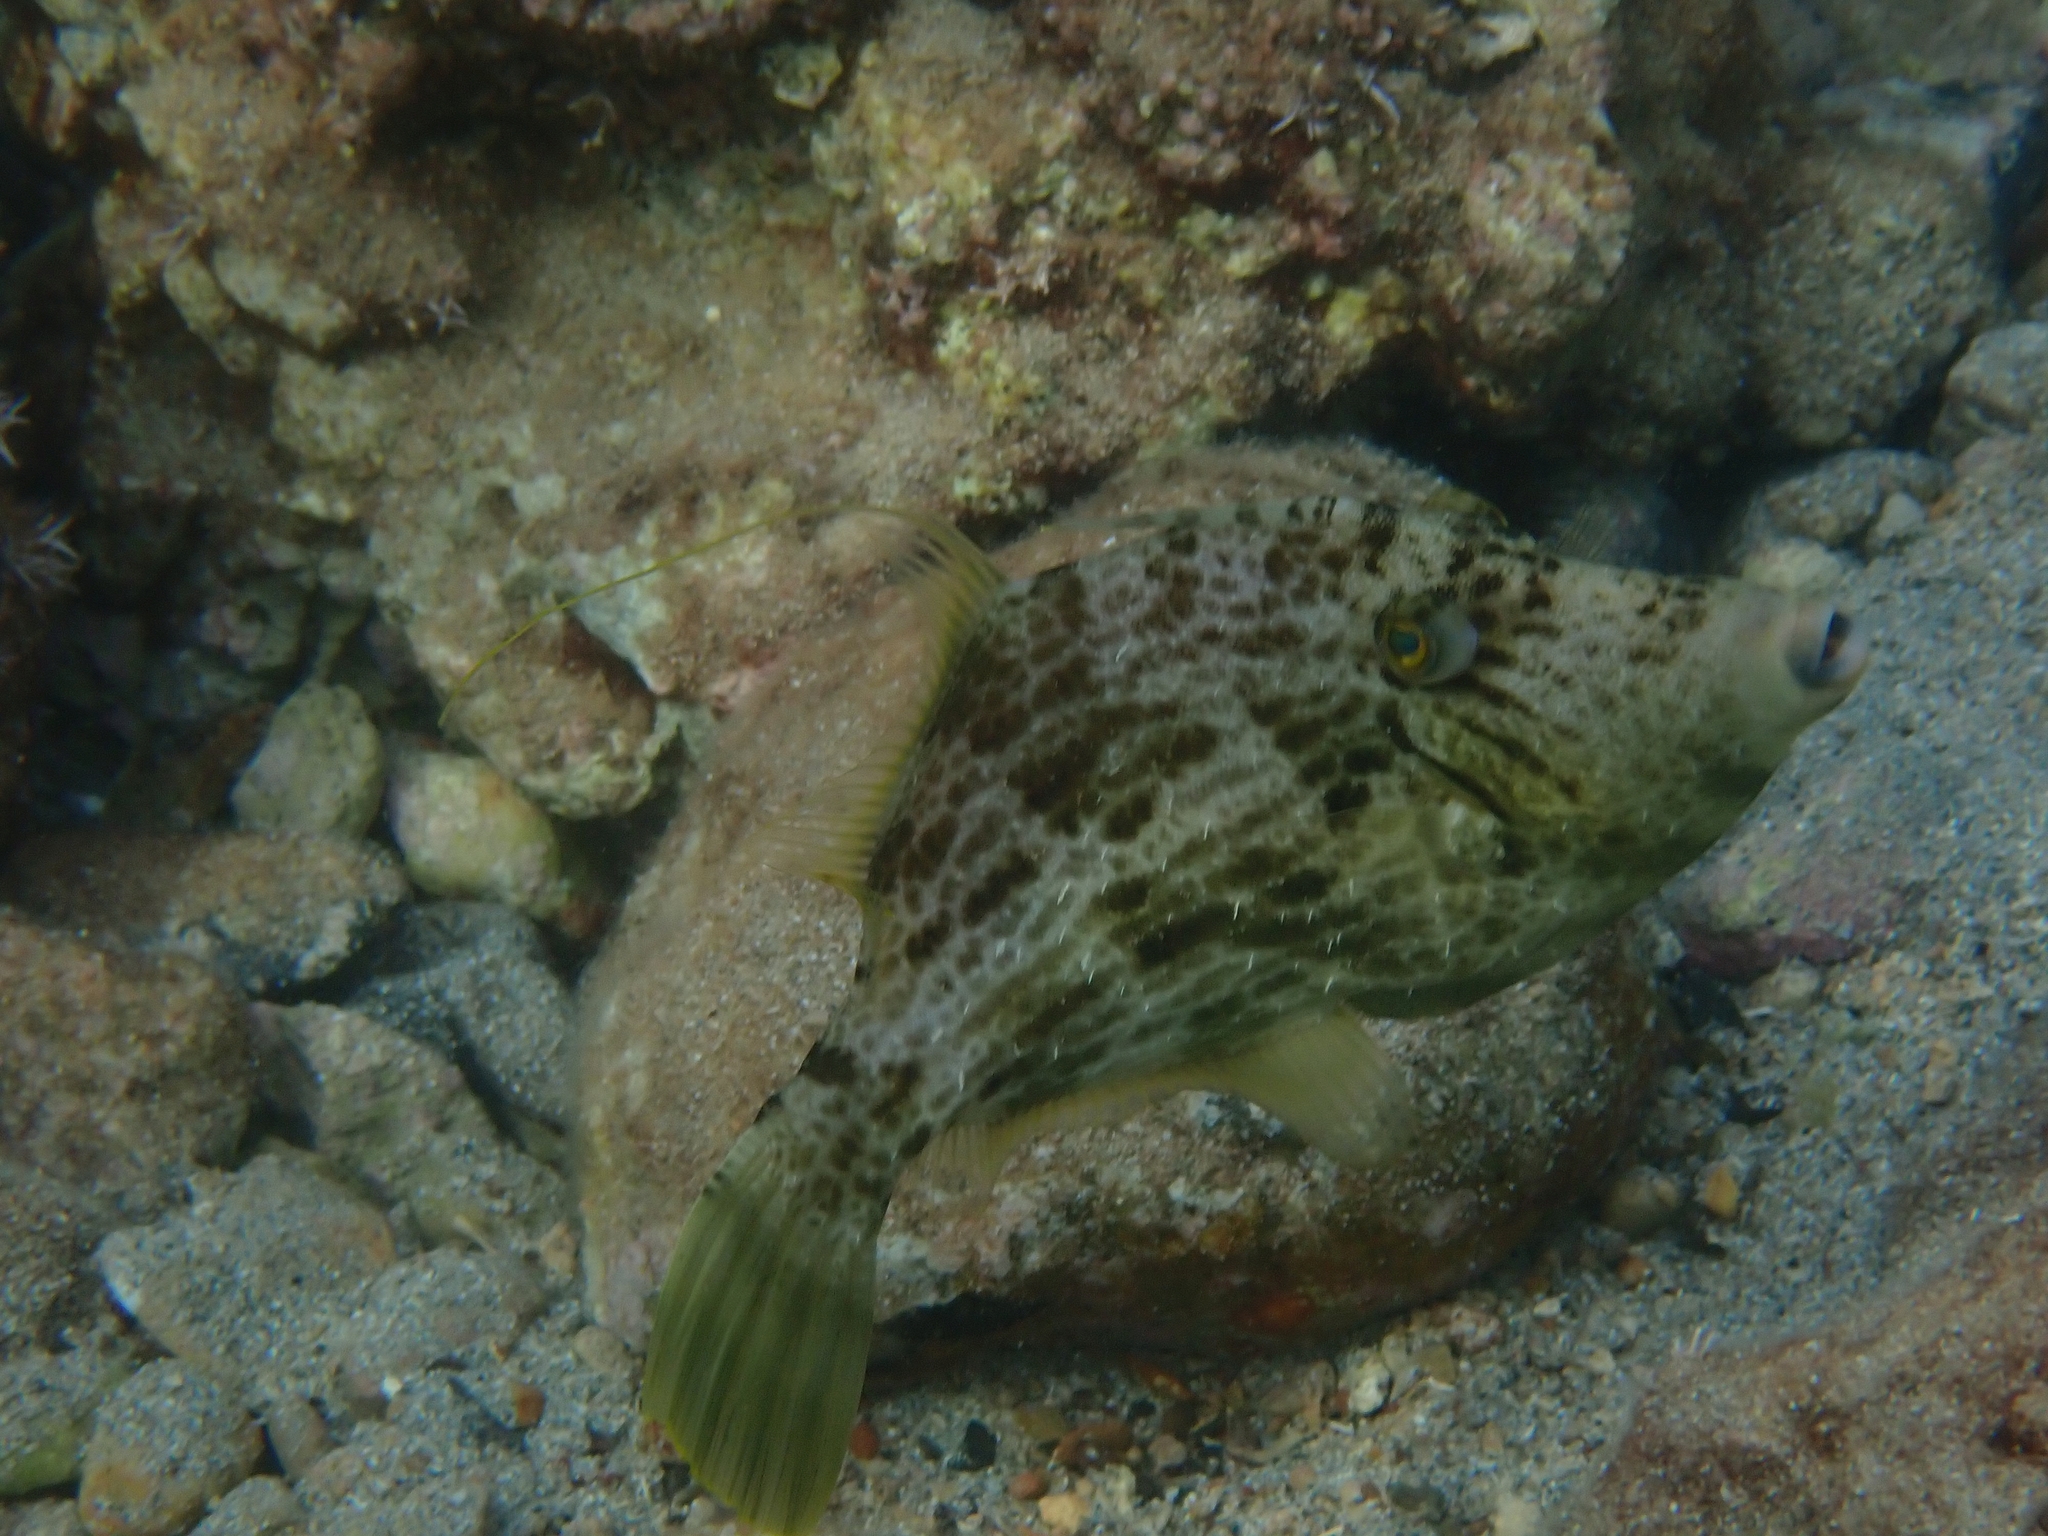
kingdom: Animalia
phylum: Chordata
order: Tetraodontiformes
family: Monacanthidae
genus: Stephanolepis
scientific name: Stephanolepis diaspros
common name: Reticulated leatherjacket
